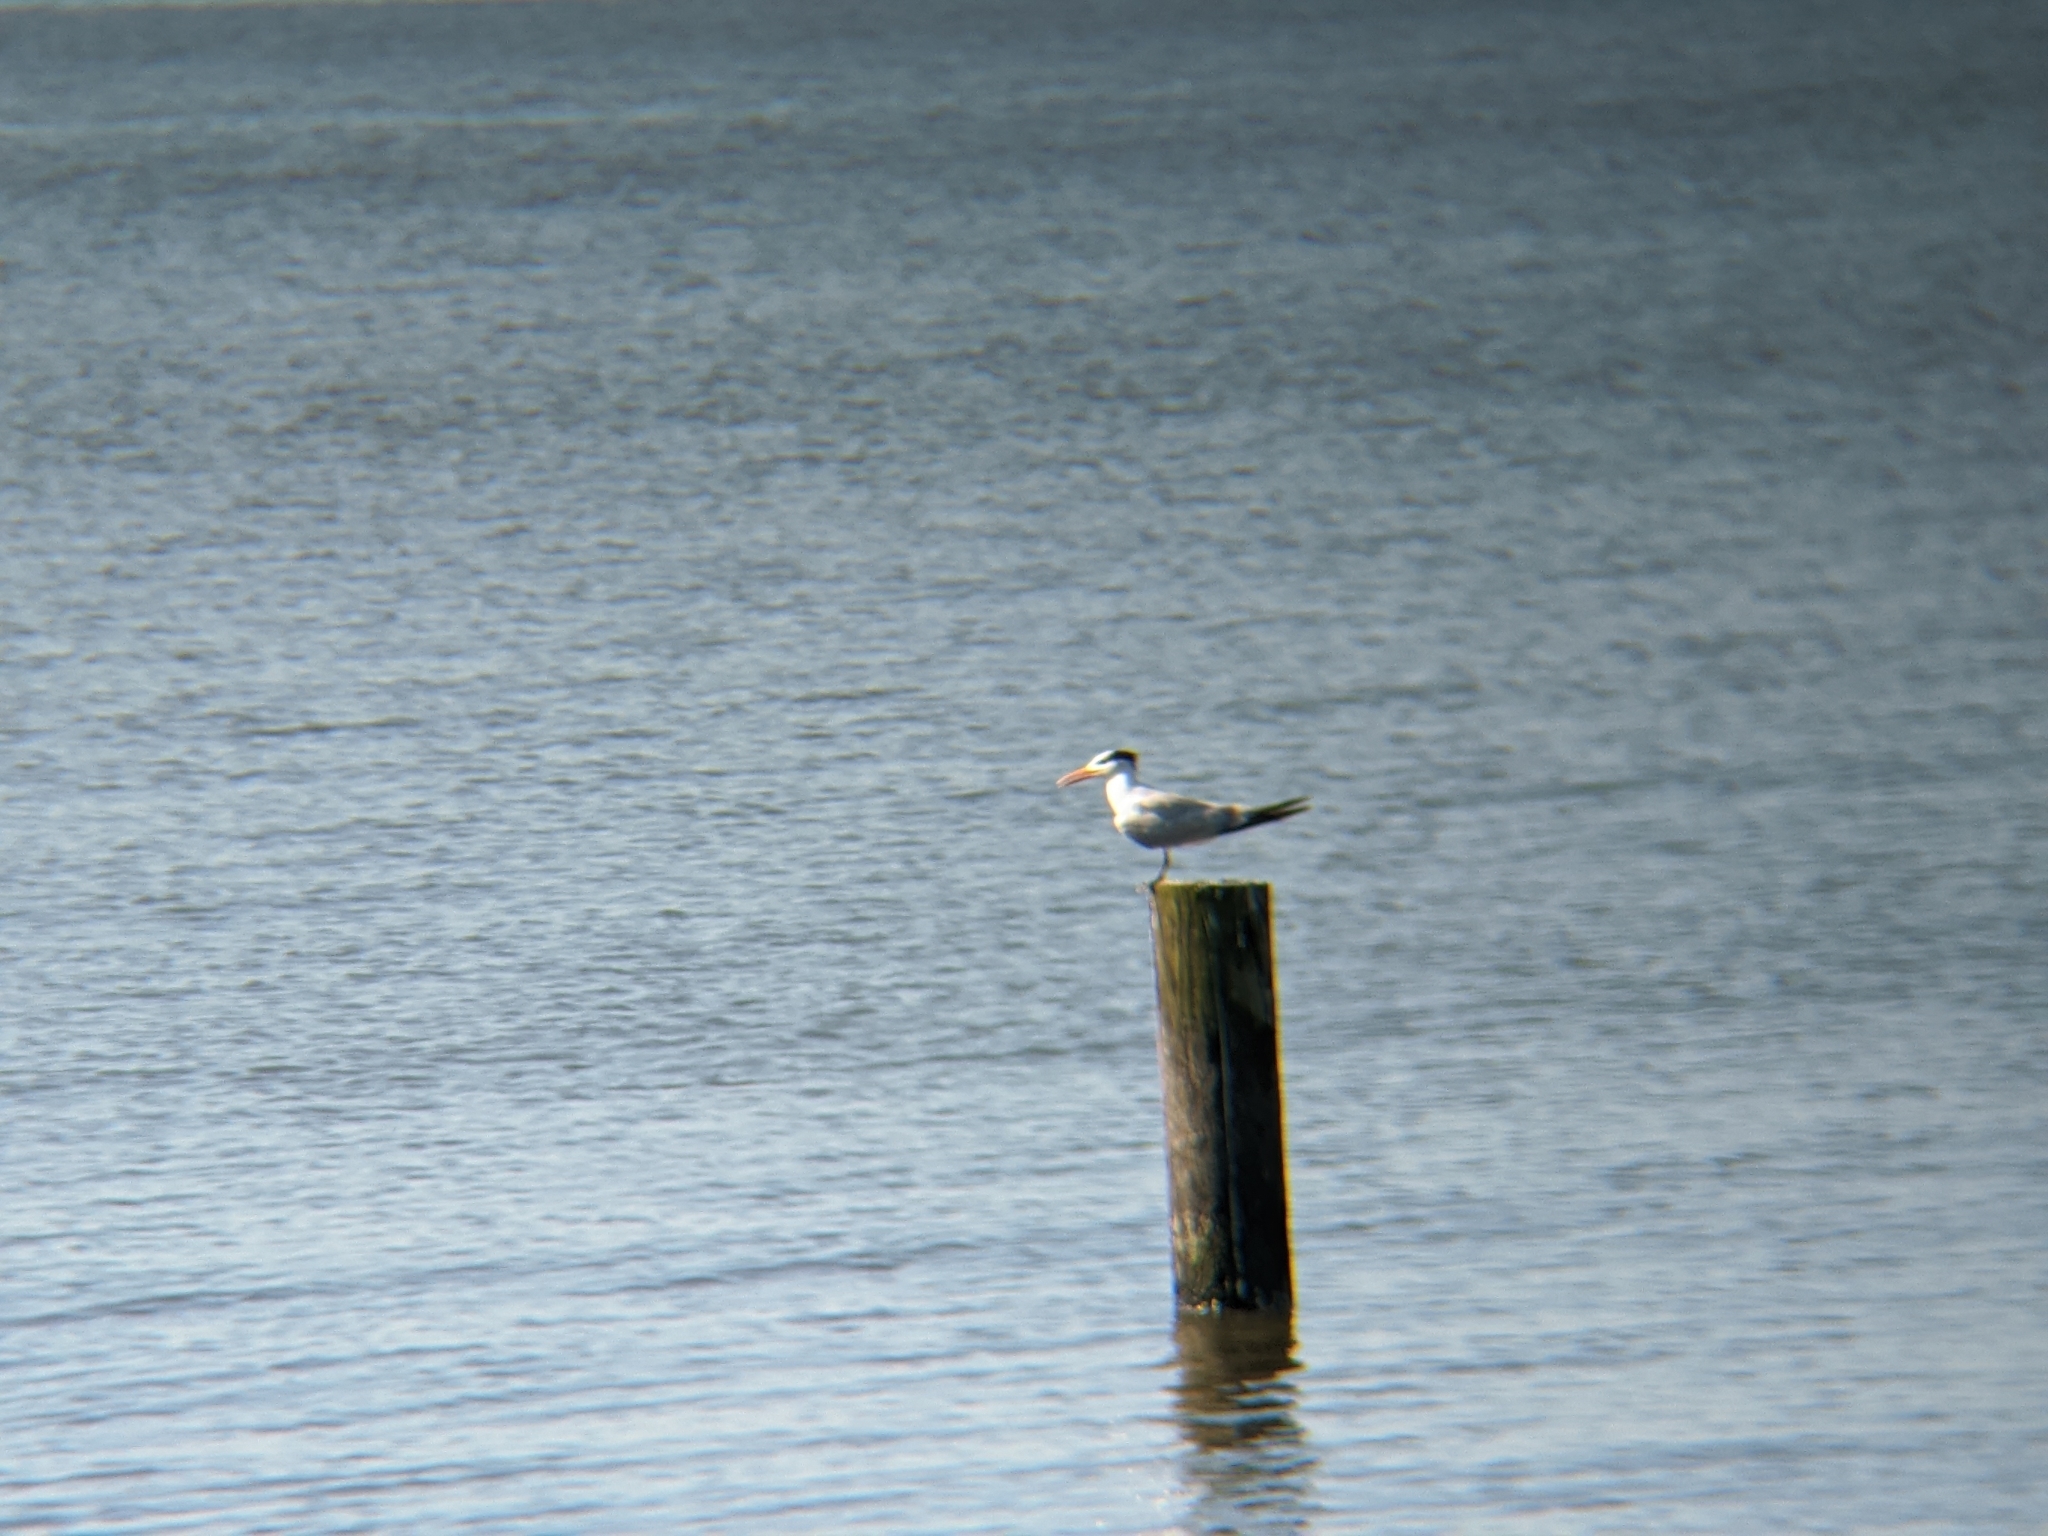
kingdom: Animalia
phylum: Chordata
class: Aves
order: Charadriiformes
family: Laridae
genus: Thalasseus
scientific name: Thalasseus maximus
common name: Royal tern
